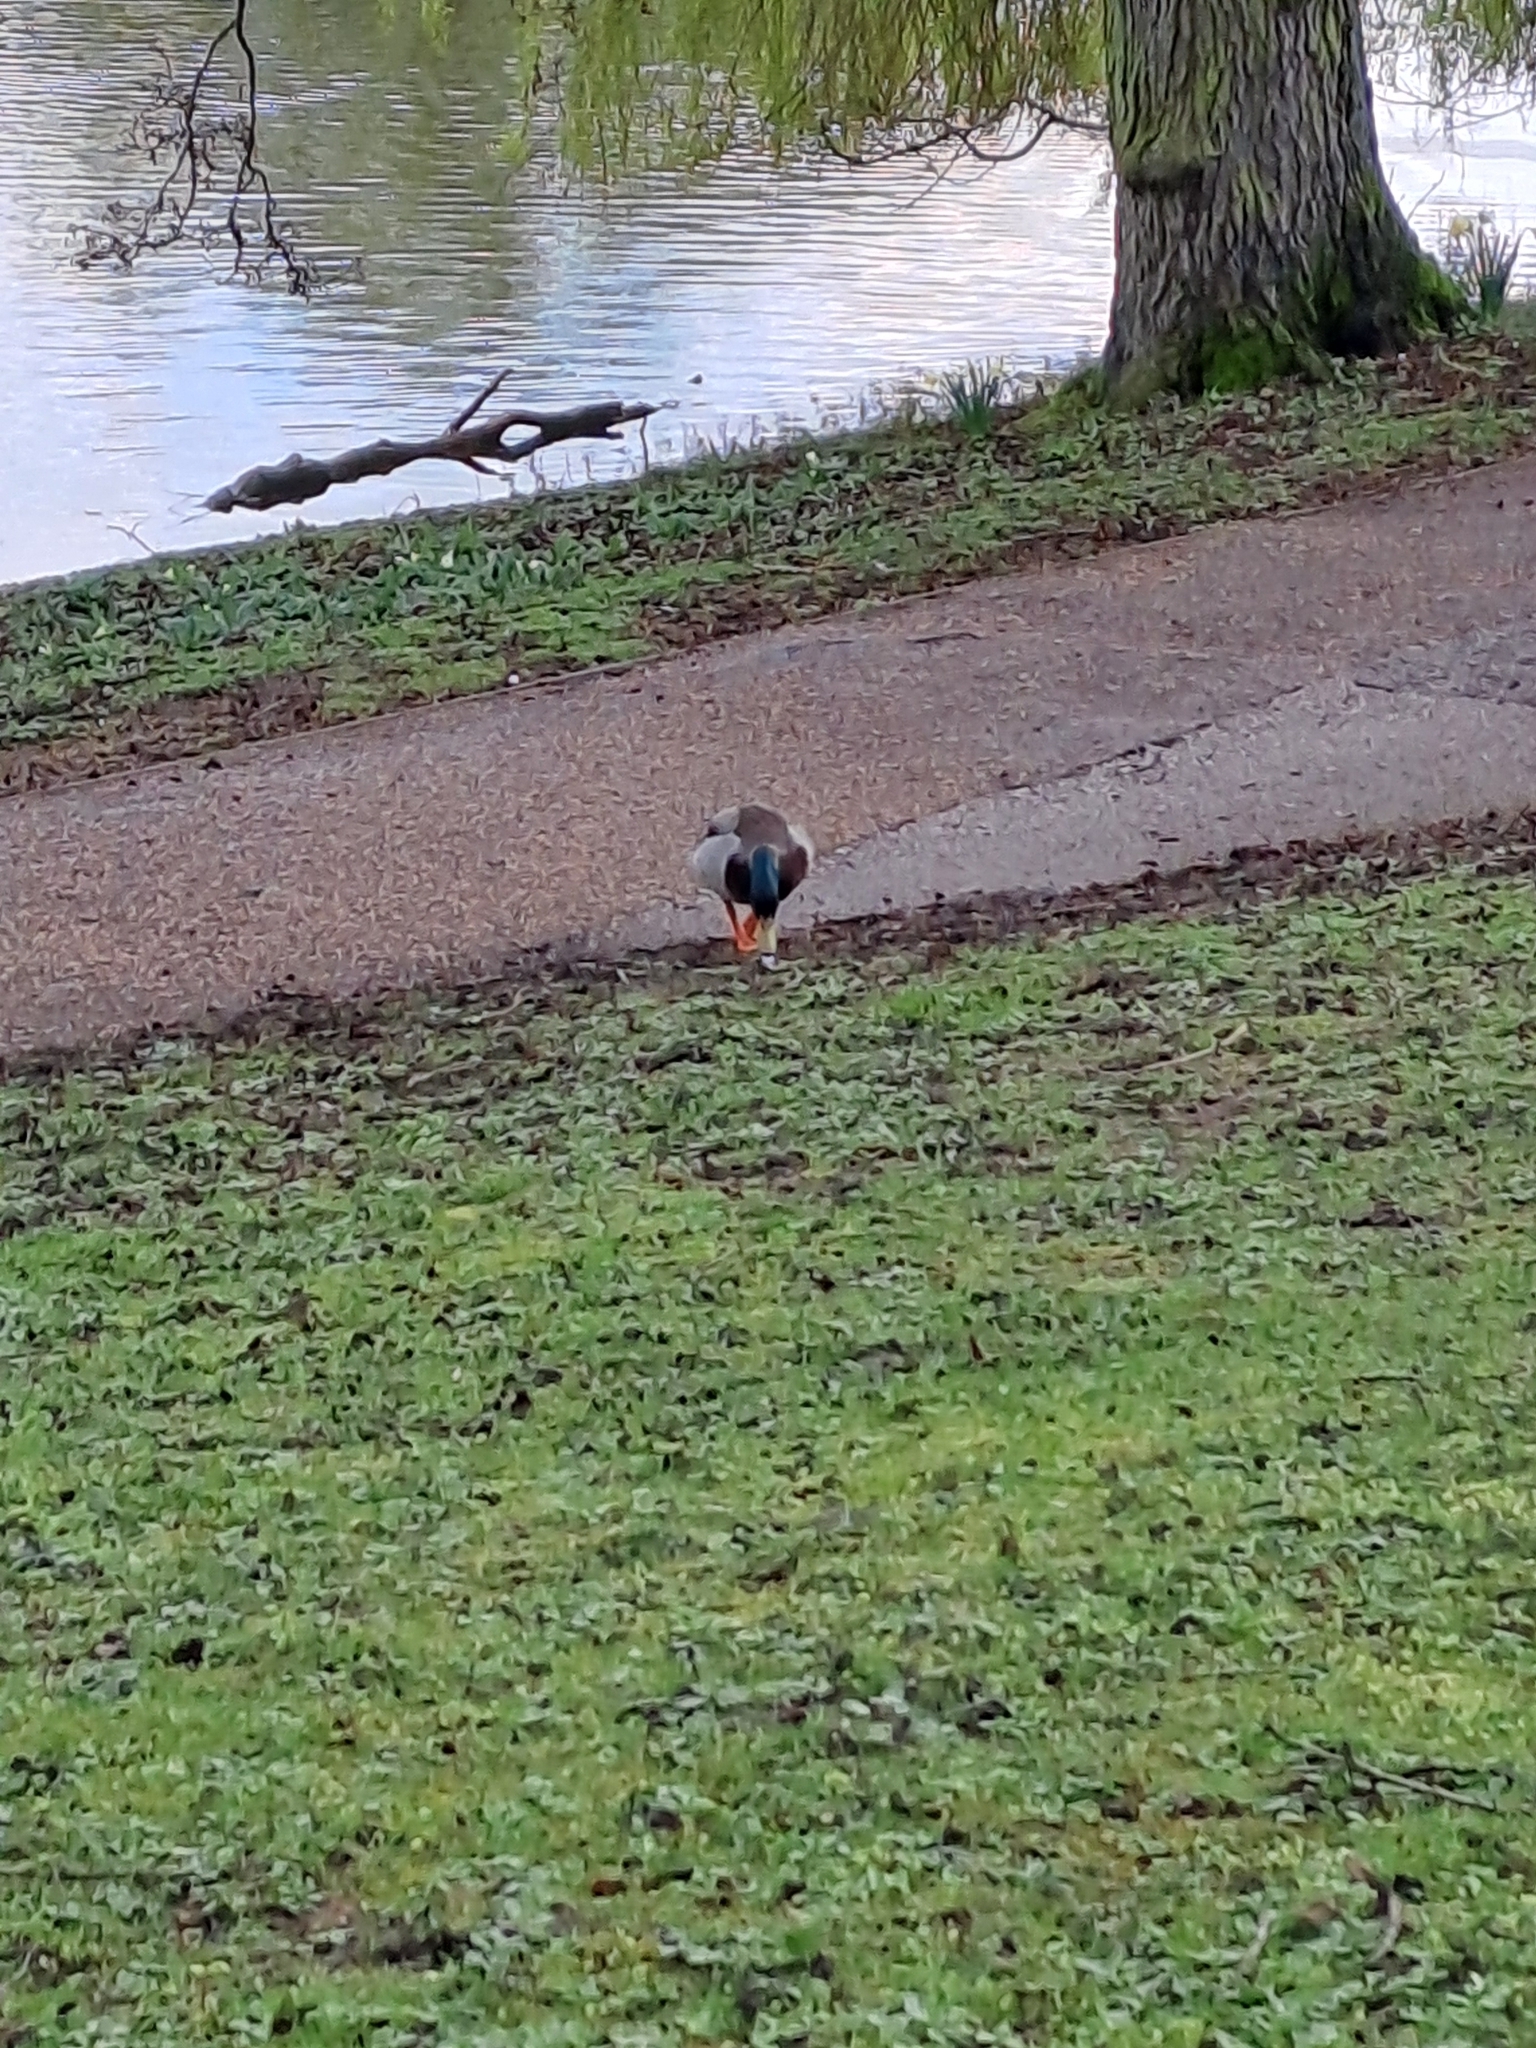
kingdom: Animalia
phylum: Chordata
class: Aves
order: Anseriformes
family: Anatidae
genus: Anas
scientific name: Anas platyrhynchos
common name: Mallard
